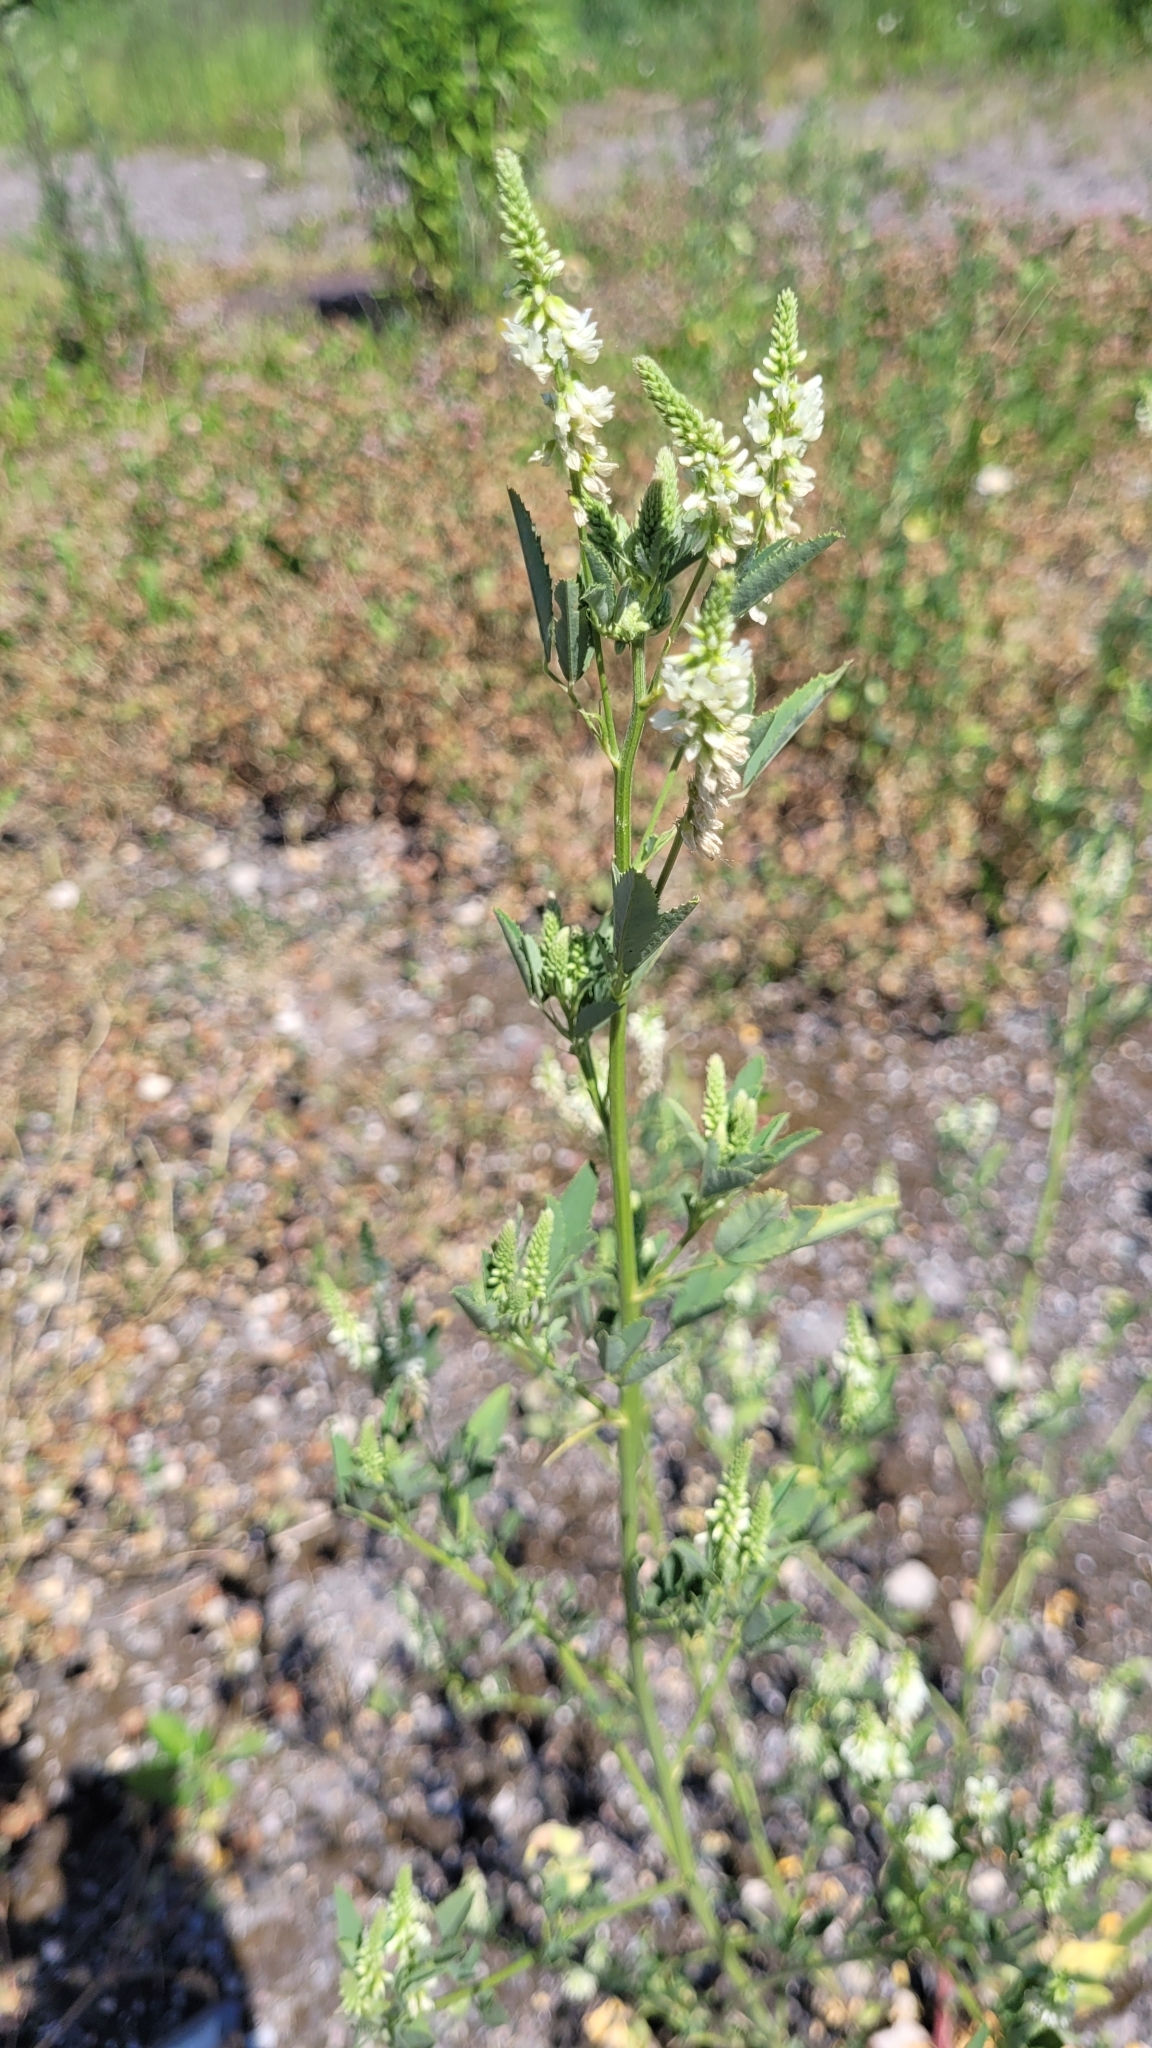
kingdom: Plantae
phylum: Tracheophyta
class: Magnoliopsida
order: Fabales
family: Fabaceae
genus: Melilotus
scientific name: Melilotus albus
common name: White melilot
